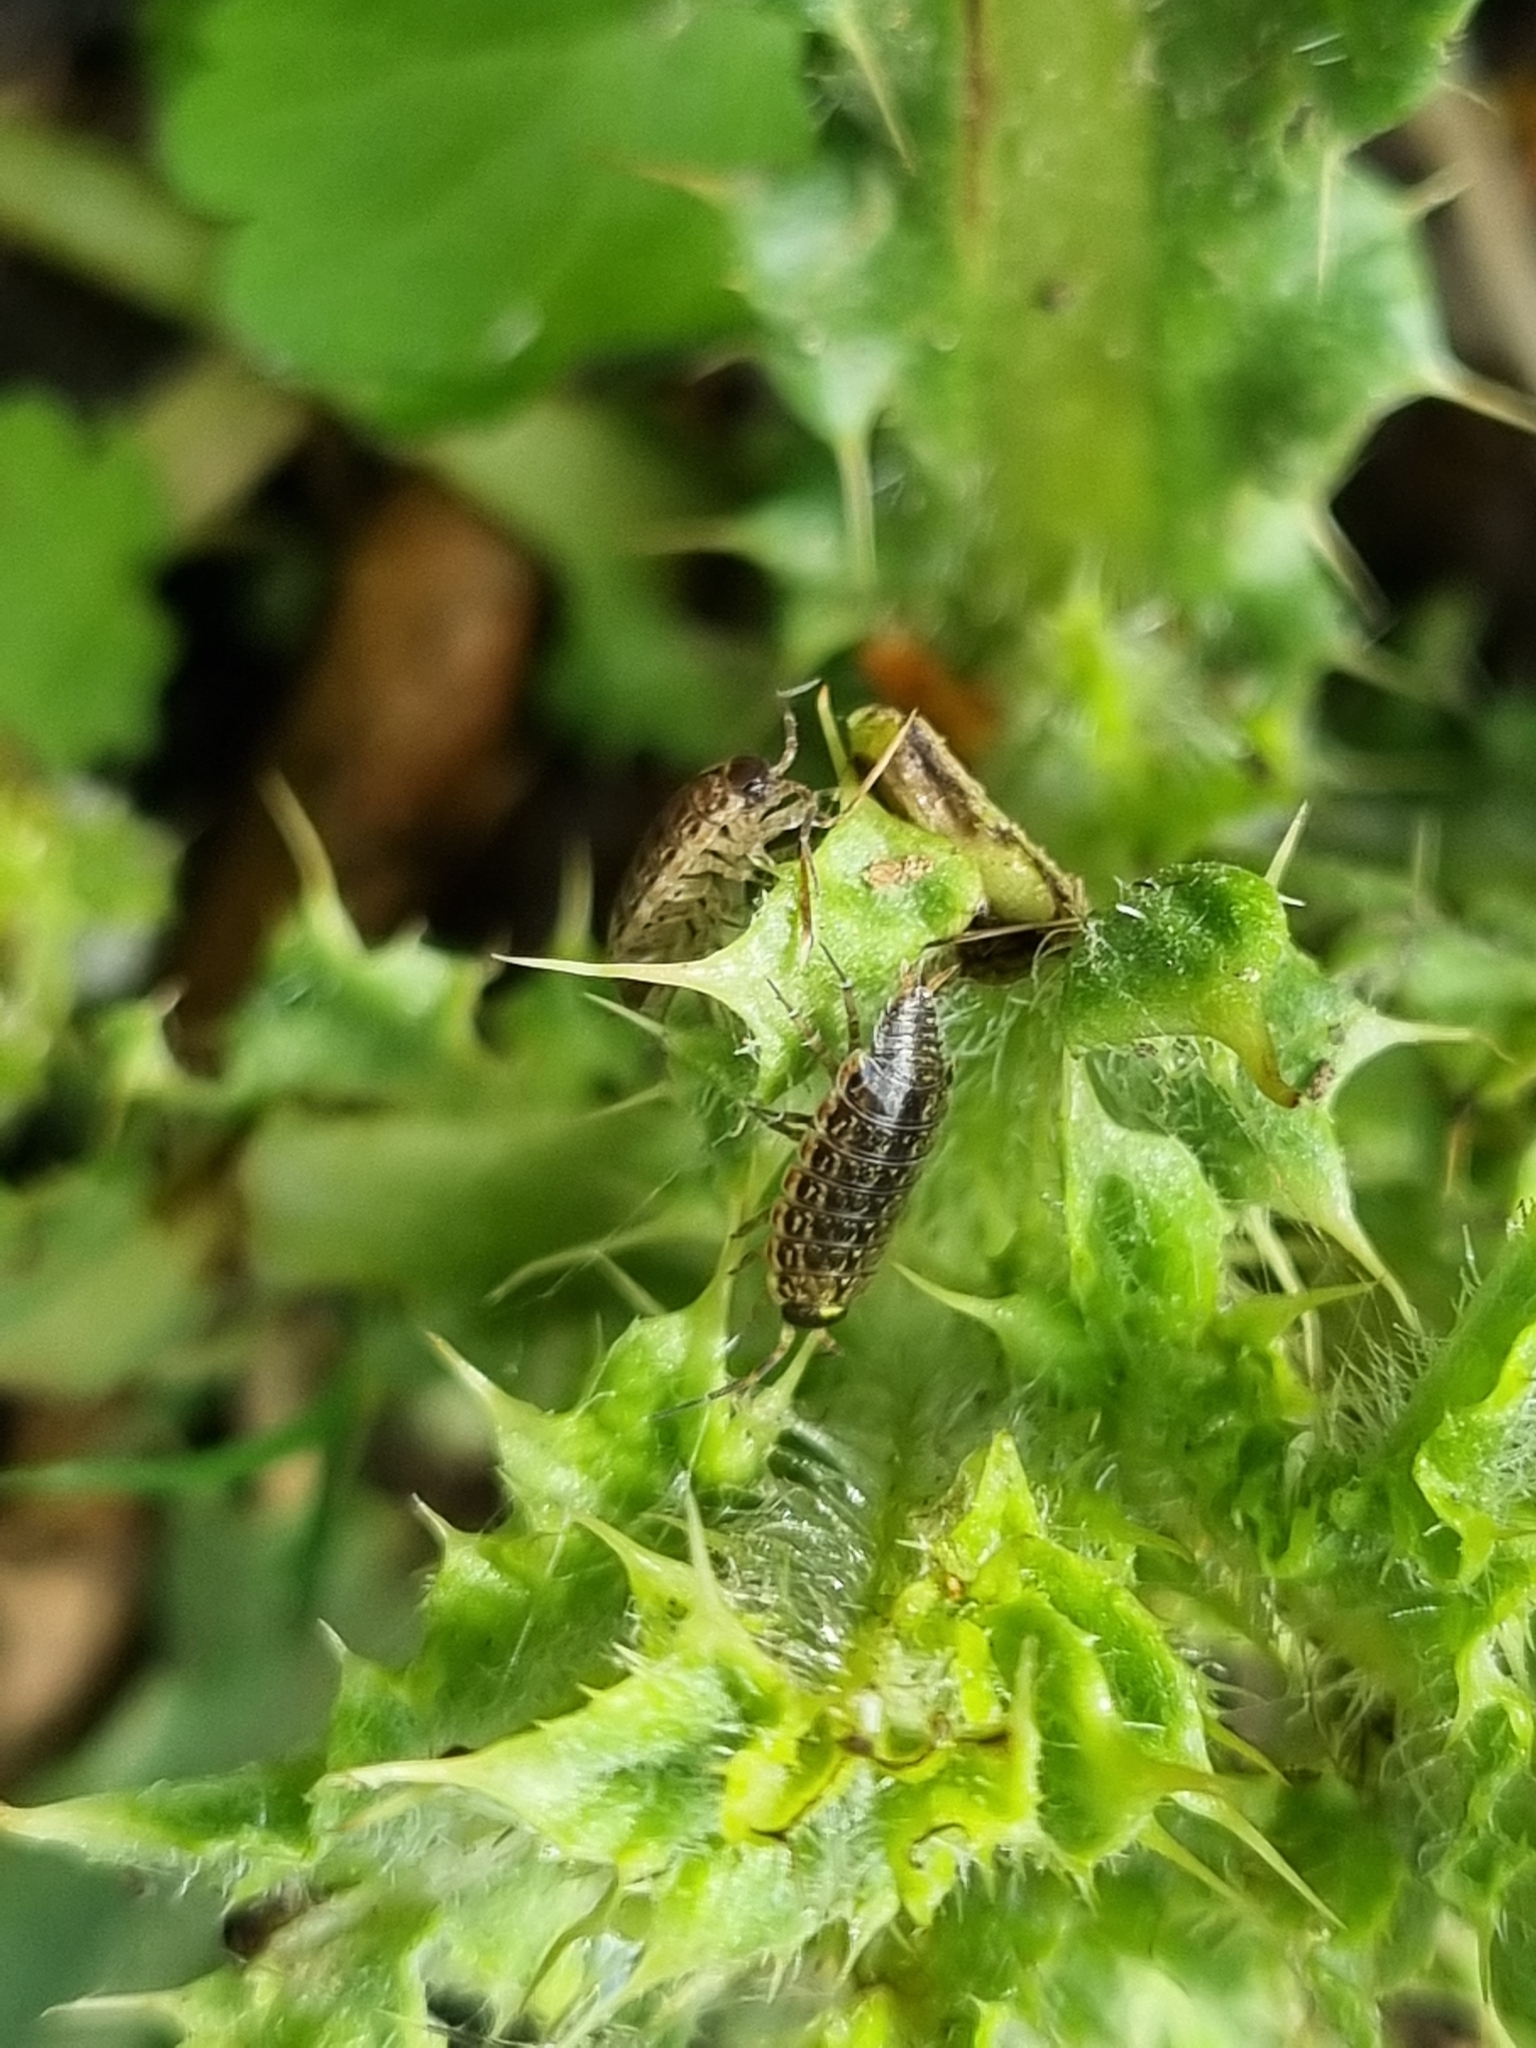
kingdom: Animalia
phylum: Arthropoda
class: Malacostraca
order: Isopoda
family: Philosciidae
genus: Philoscia
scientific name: Philoscia muscorum
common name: Common striped woodlouse
